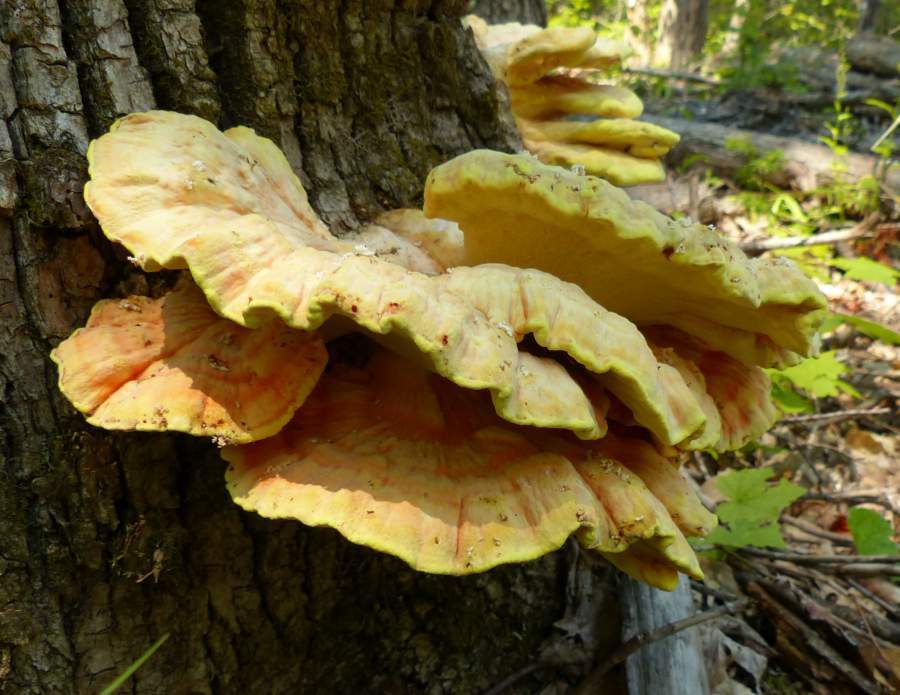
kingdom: Fungi
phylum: Basidiomycota
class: Agaricomycetes
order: Polyporales
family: Laetiporaceae
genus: Laetiporus
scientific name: Laetiporus sulphureus
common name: Chicken of the woods
